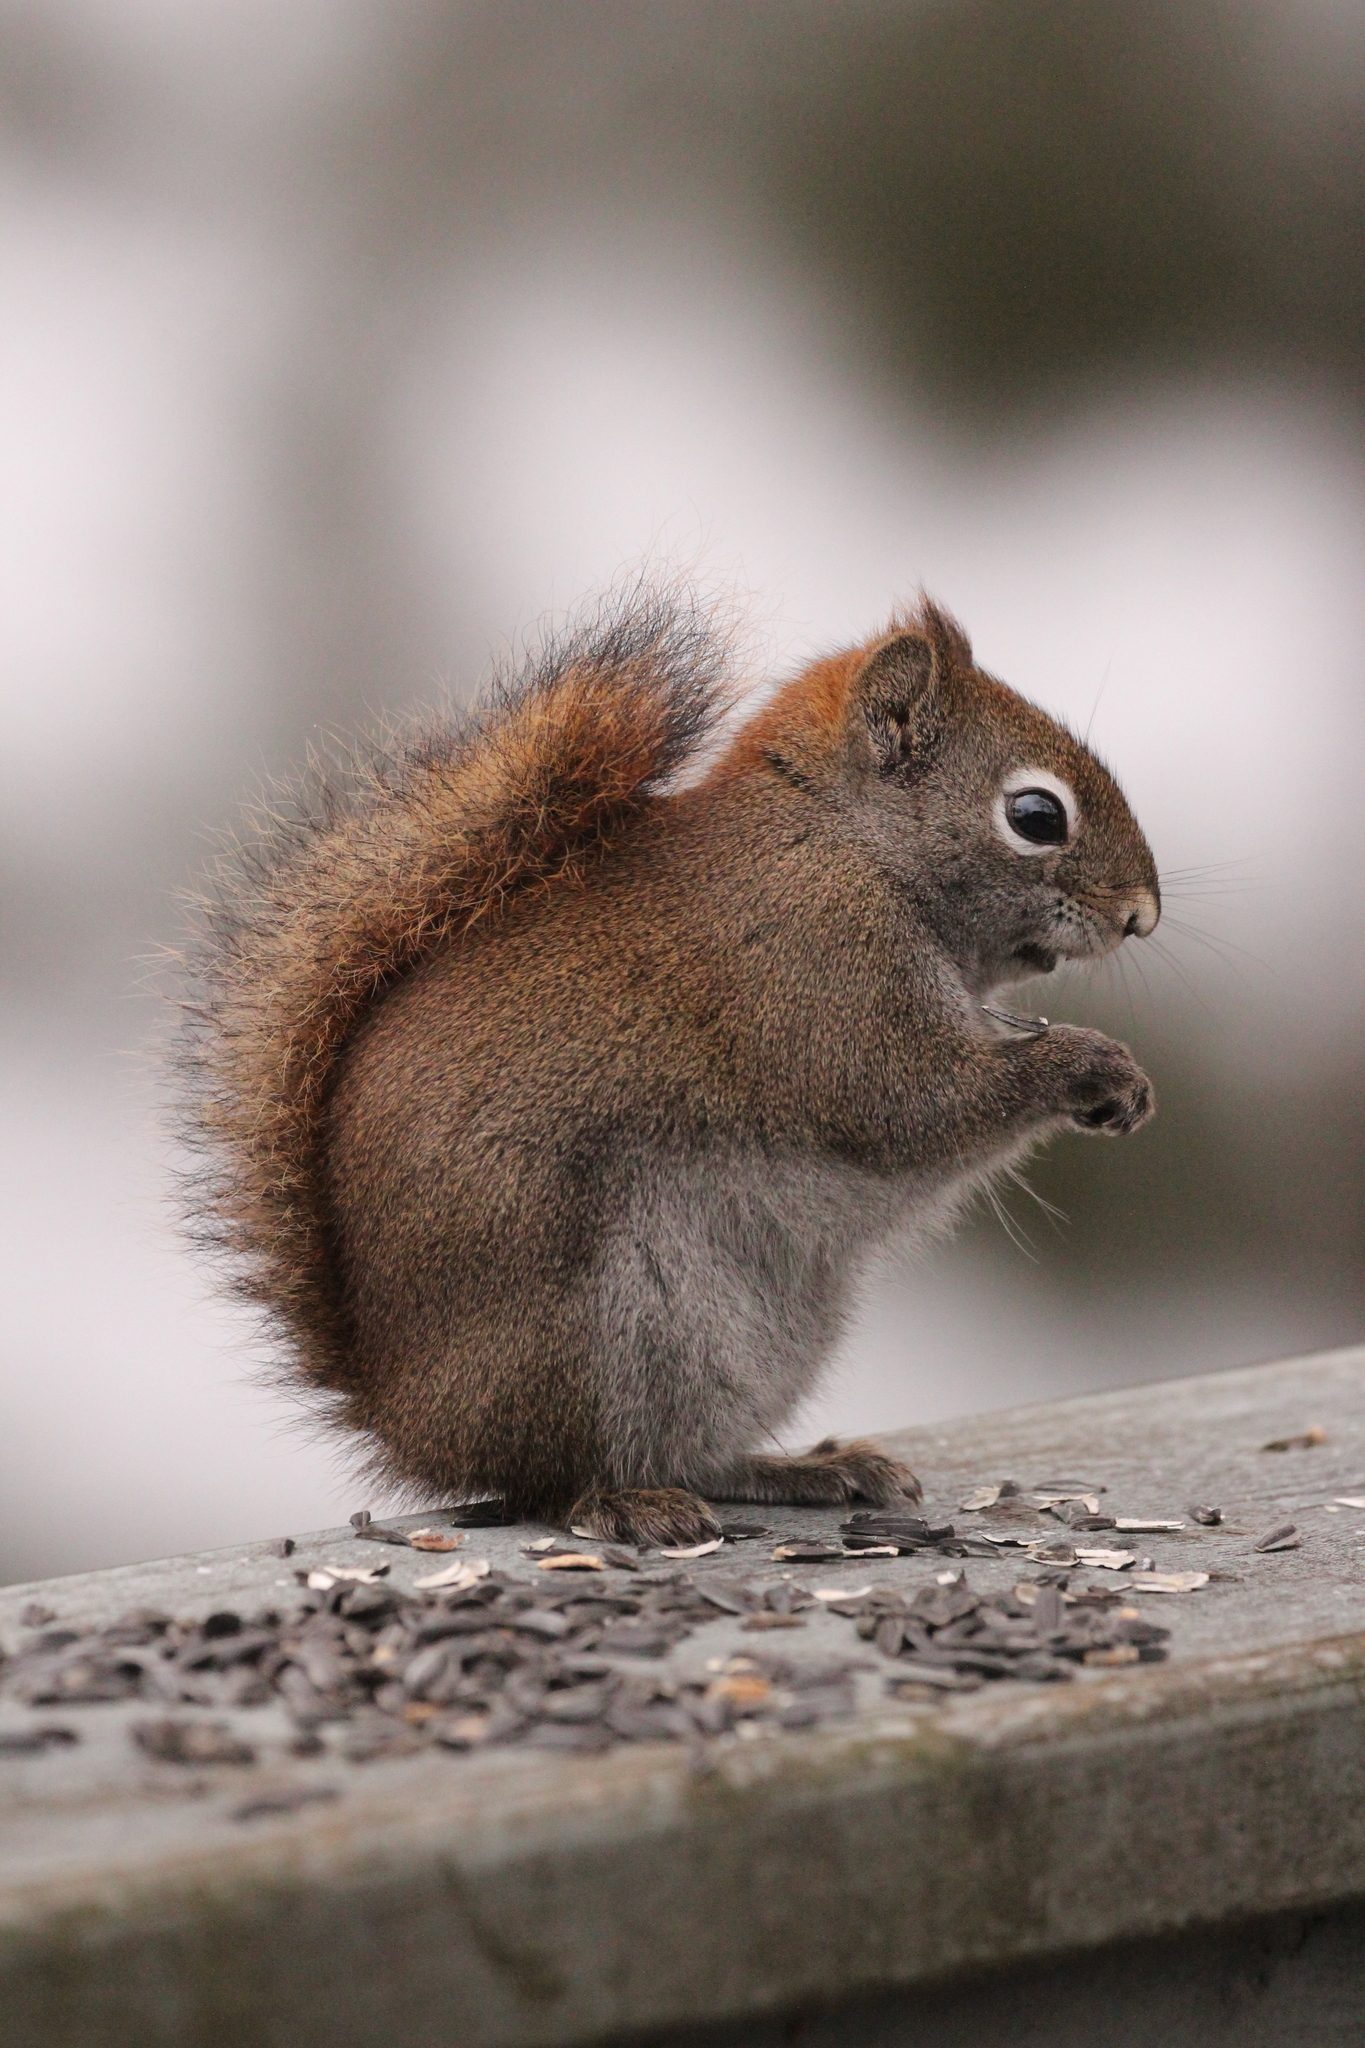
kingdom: Animalia
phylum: Chordata
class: Mammalia
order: Rodentia
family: Sciuridae
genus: Tamiasciurus
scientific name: Tamiasciurus hudsonicus
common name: Red squirrel
